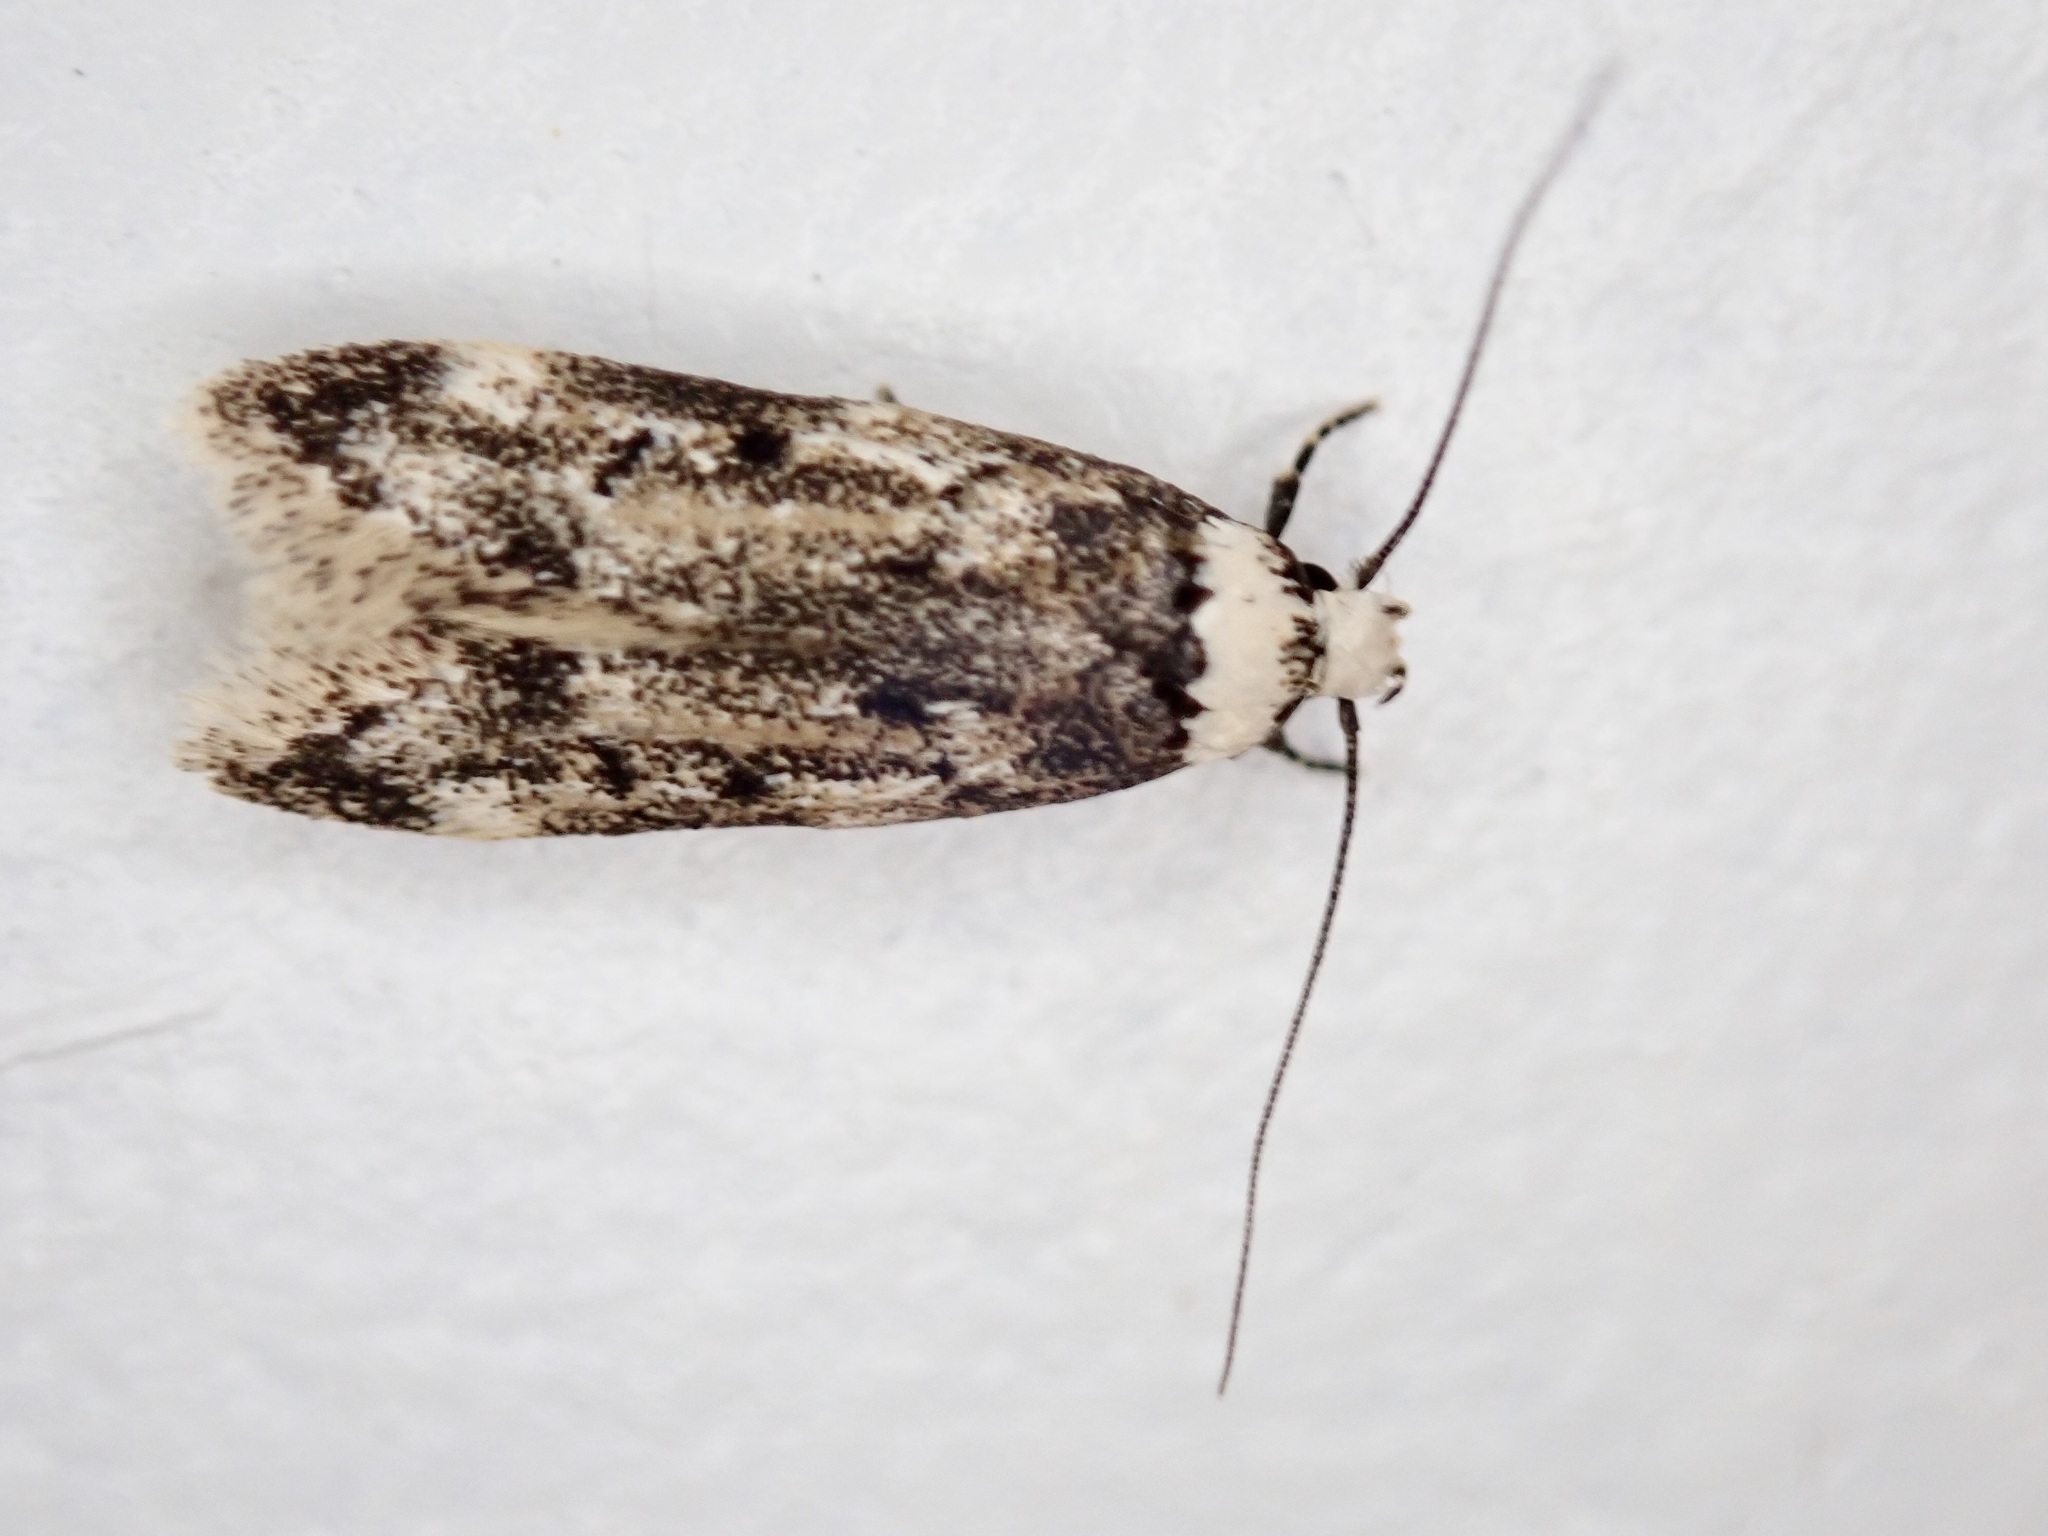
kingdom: Animalia
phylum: Arthropoda
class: Insecta
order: Lepidoptera
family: Oecophoridae
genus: Endrosis
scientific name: Endrosis sarcitrella
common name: White-shouldered house moth
